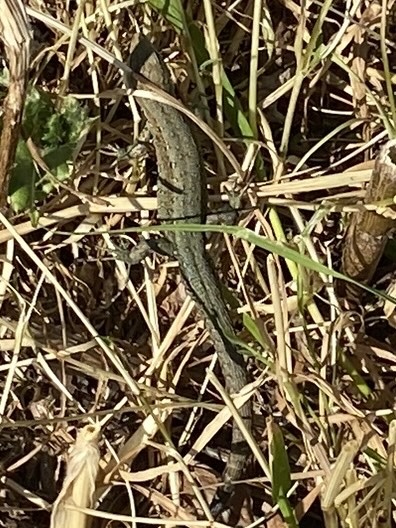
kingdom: Animalia
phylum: Chordata
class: Squamata
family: Lacertidae
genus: Zootoca
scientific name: Zootoca vivipara
